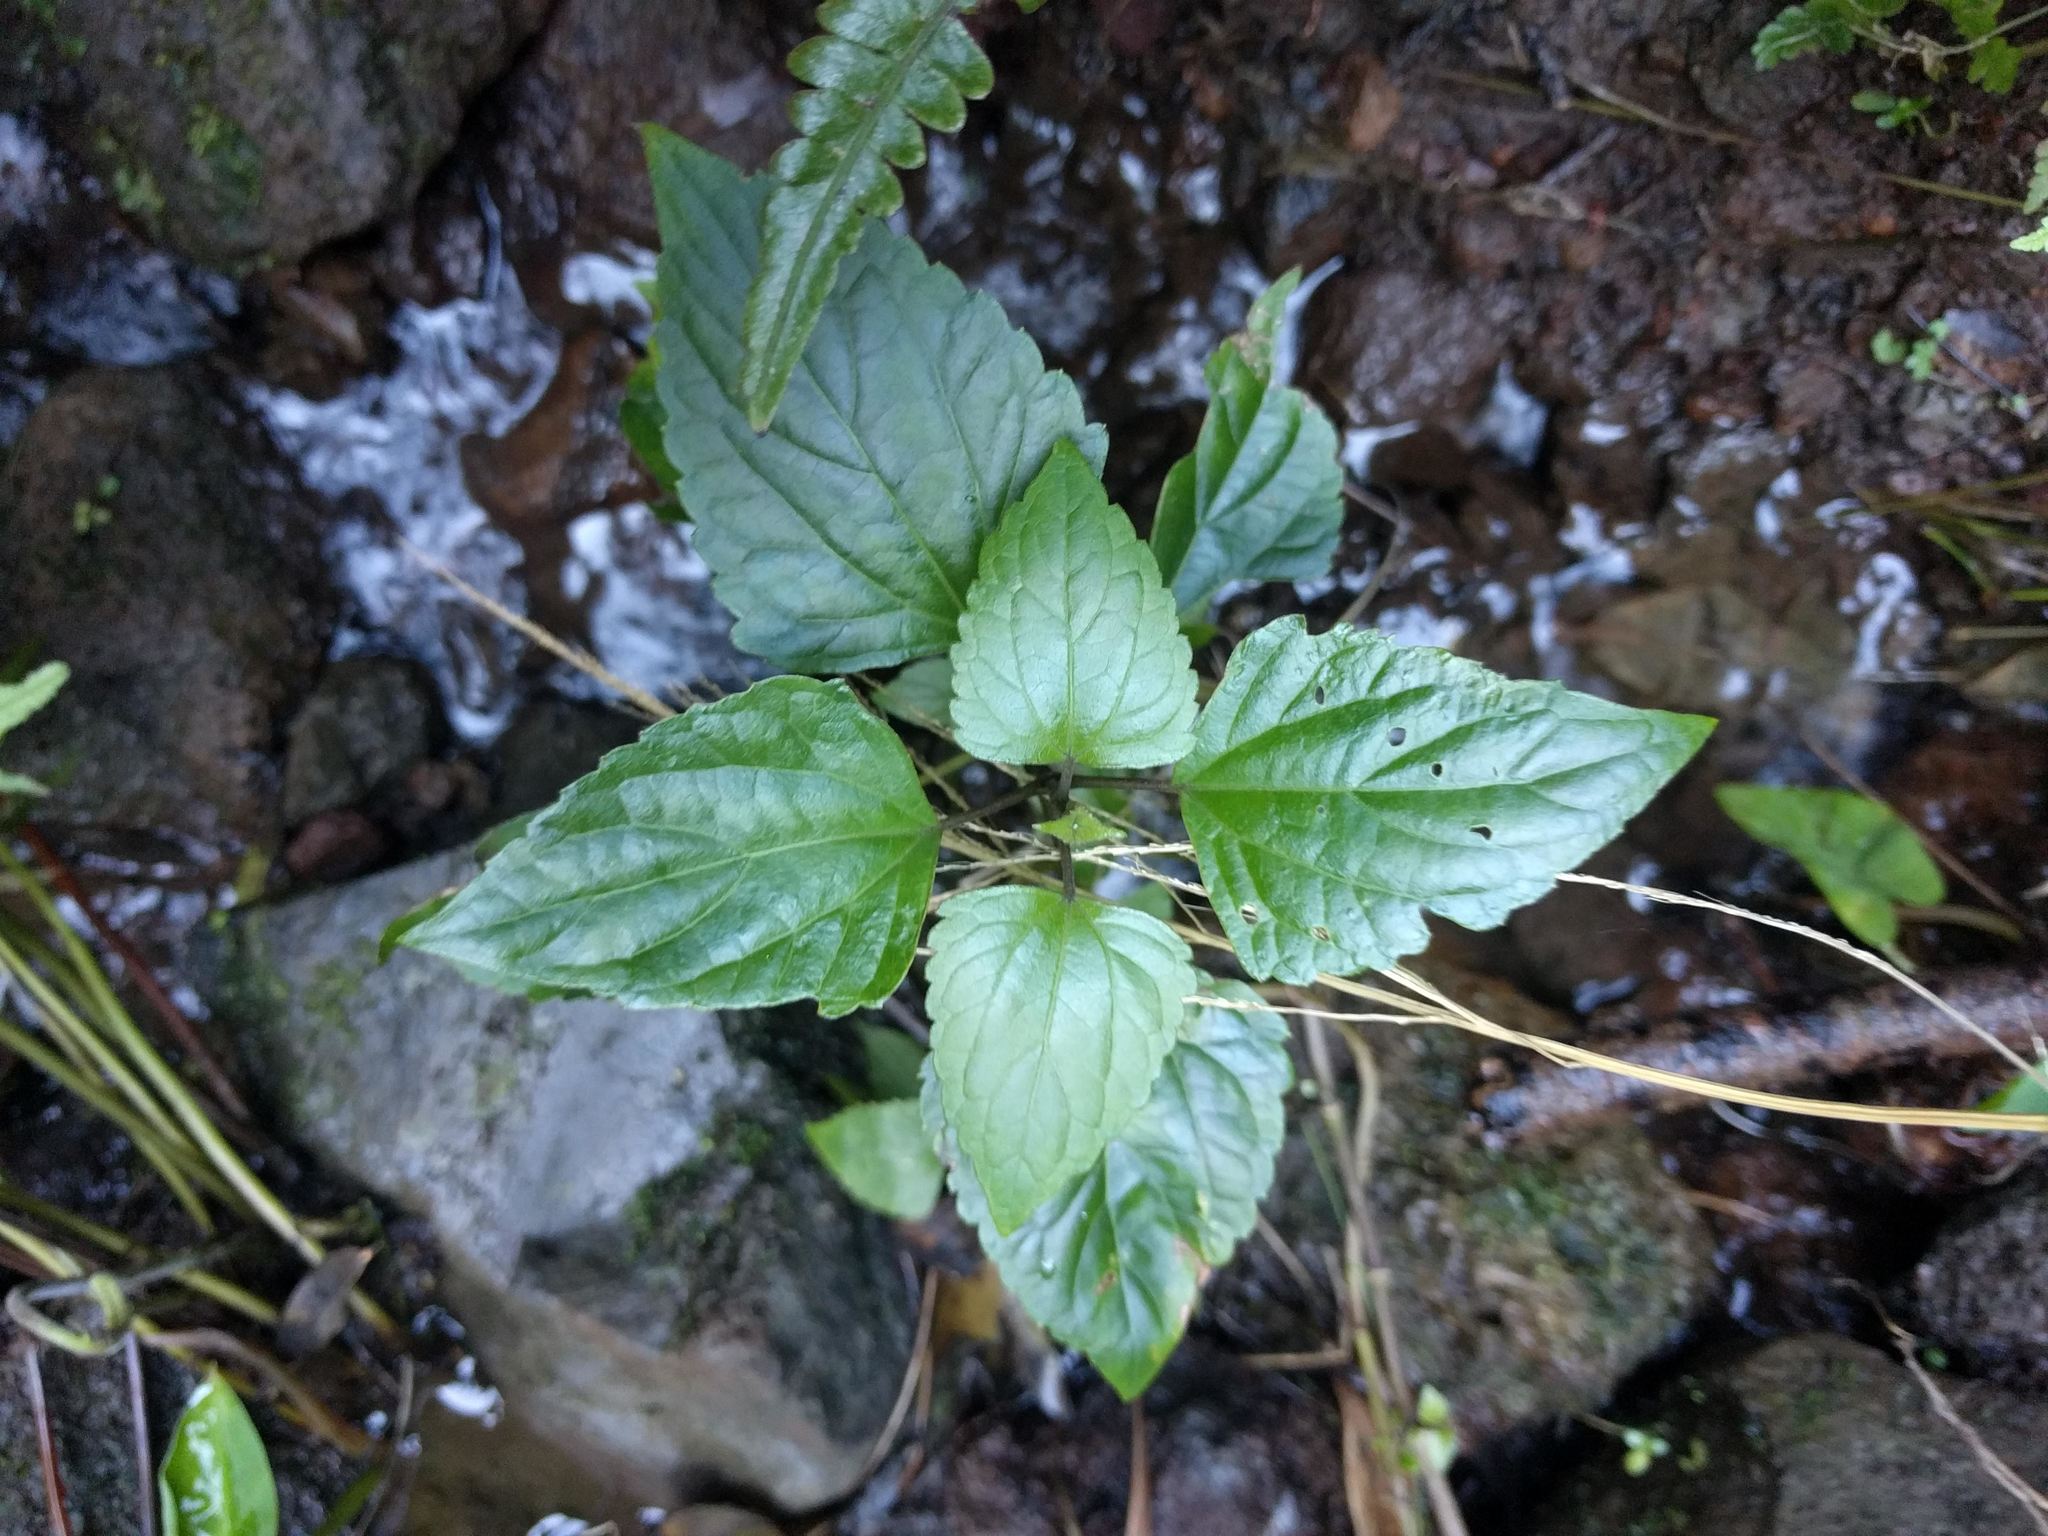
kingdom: Plantae
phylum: Tracheophyta
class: Magnoliopsida
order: Asterales
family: Asteraceae
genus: Ageratina
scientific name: Ageratina adenophora
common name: Sticky snakeroot
